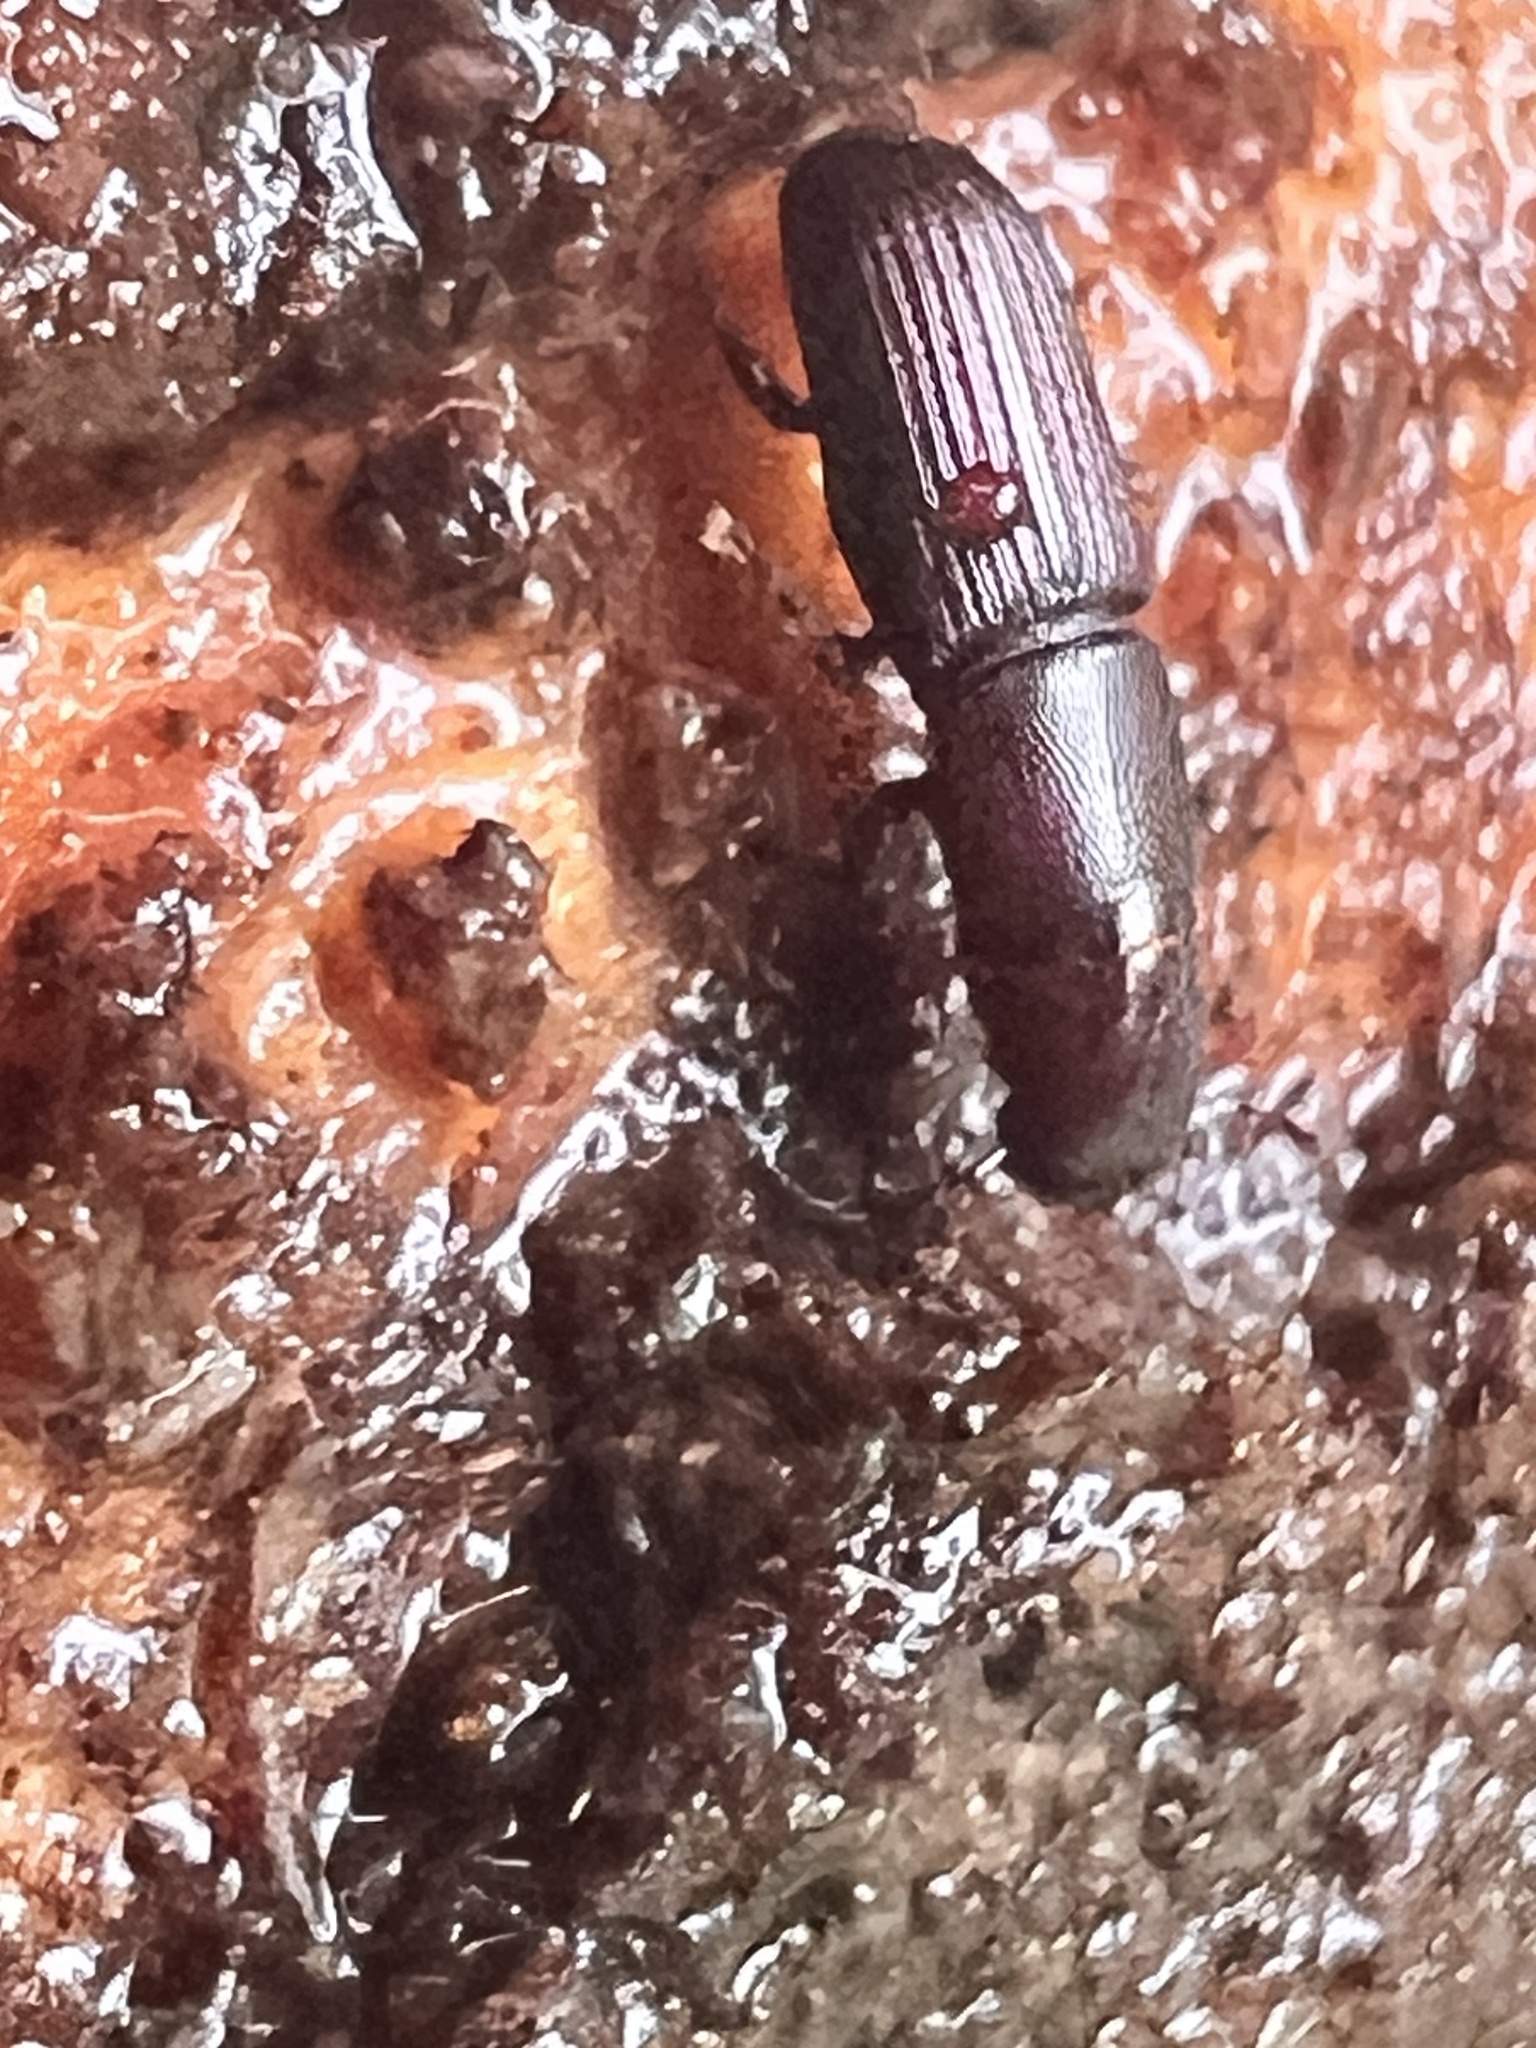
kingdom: Animalia
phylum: Arthropoda
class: Insecta
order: Coleoptera
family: Curculionidae
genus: Xenocnema
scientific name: Xenocnema spinipes
